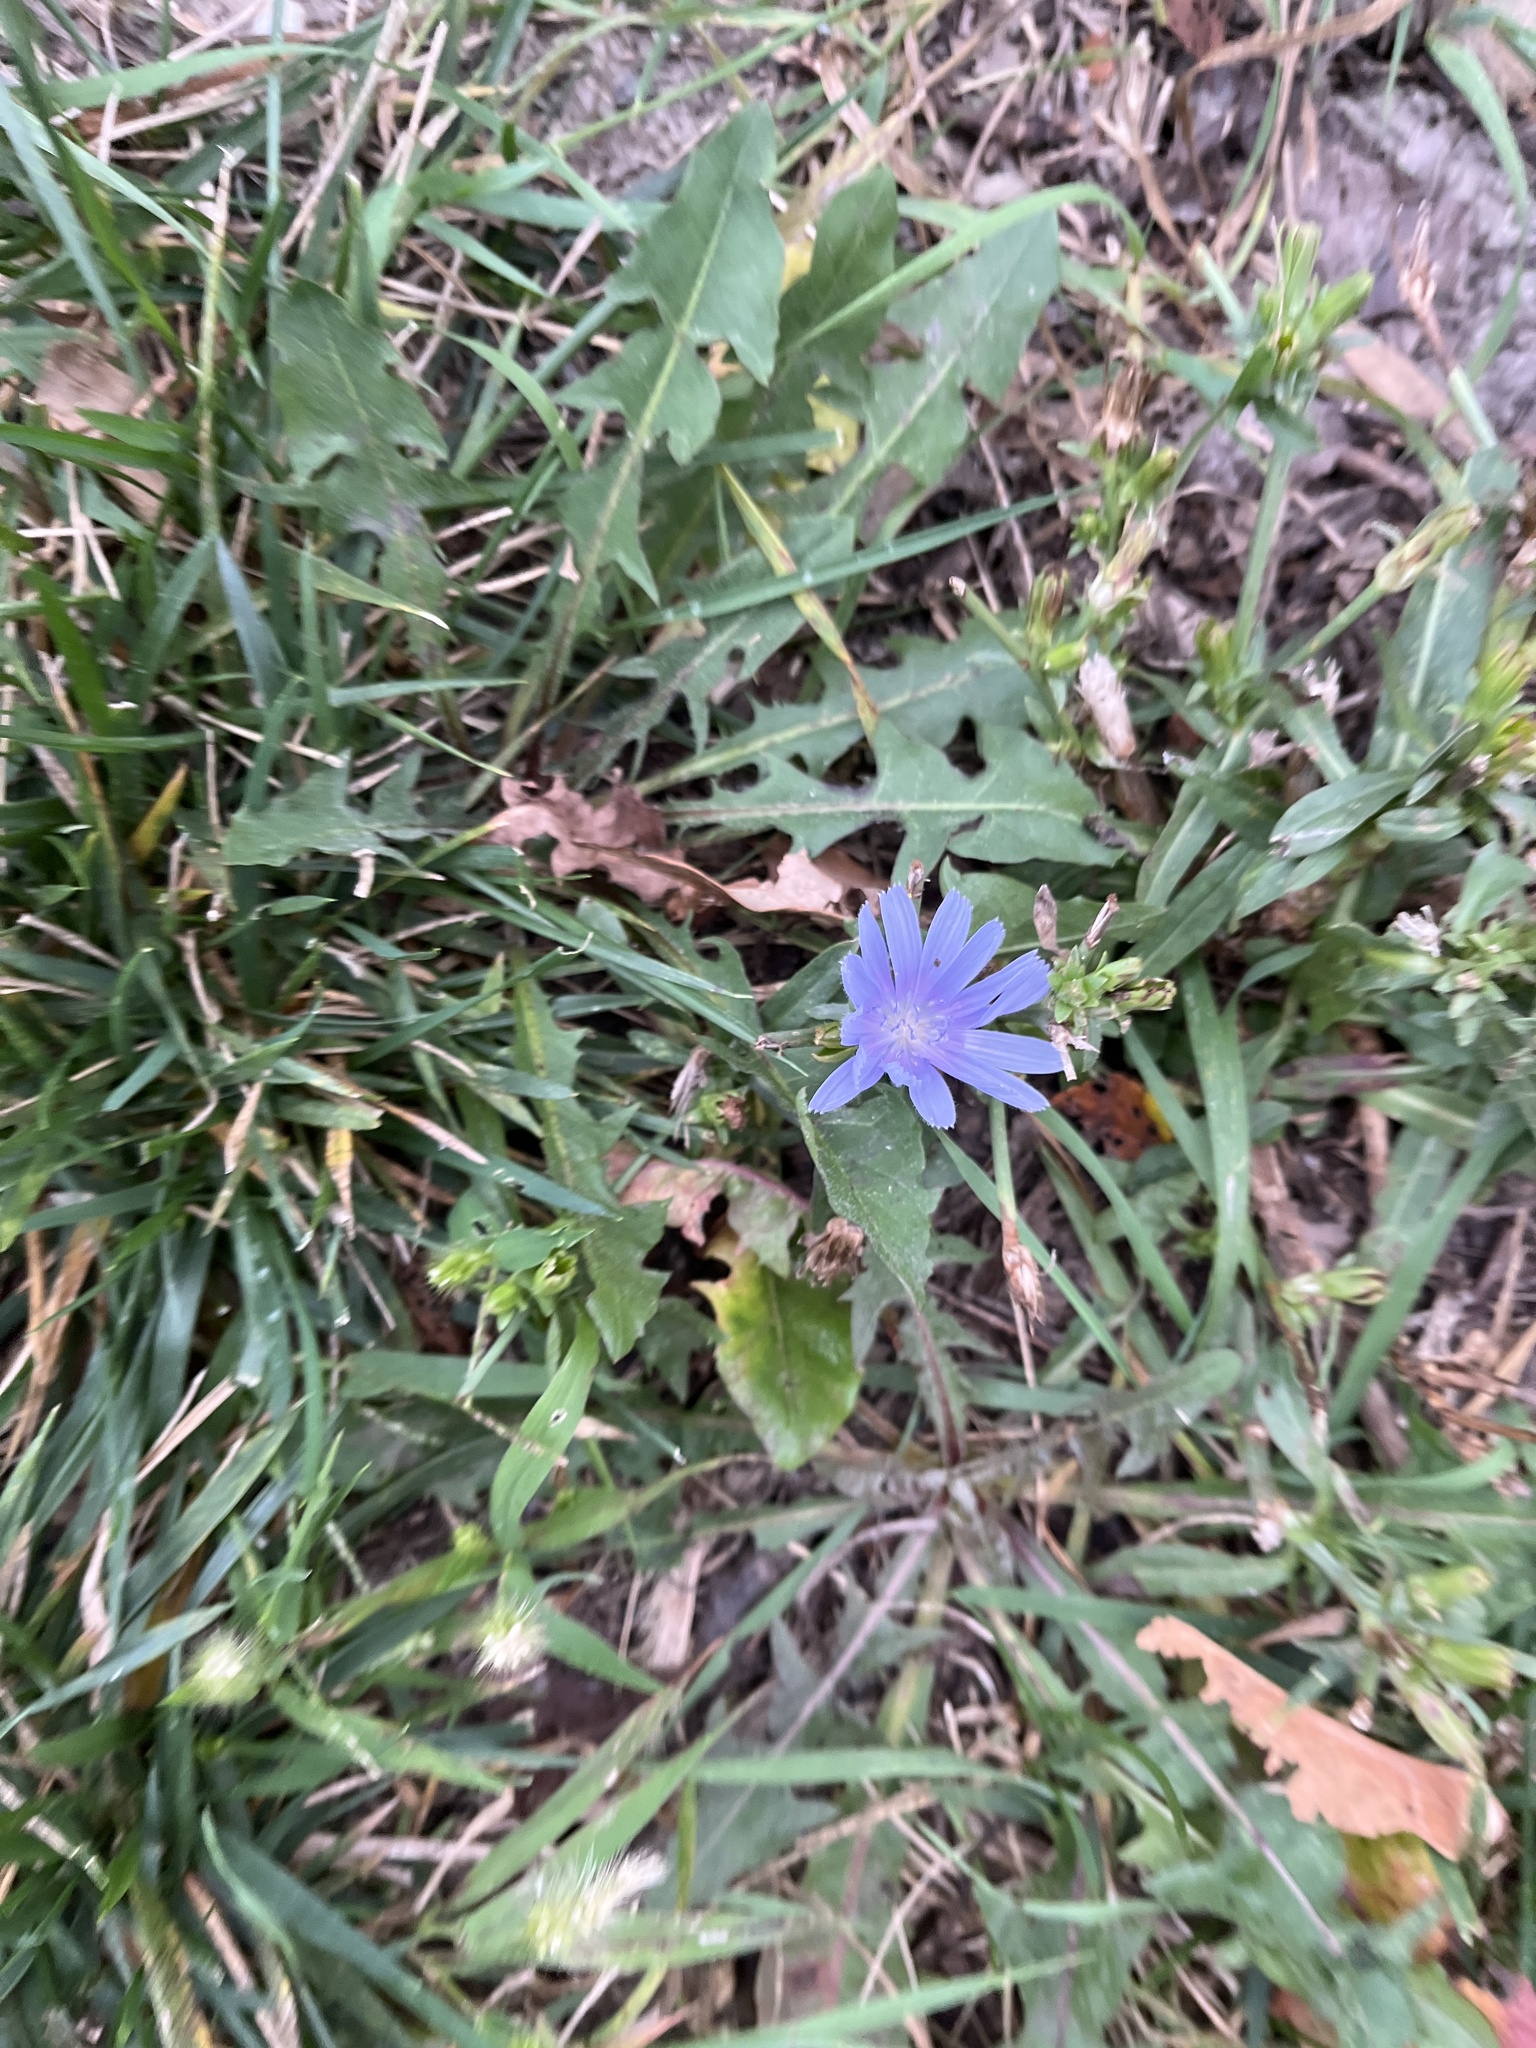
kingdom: Plantae
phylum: Tracheophyta
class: Magnoliopsida
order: Asterales
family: Asteraceae
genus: Cichorium
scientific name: Cichorium intybus
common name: Chicory
